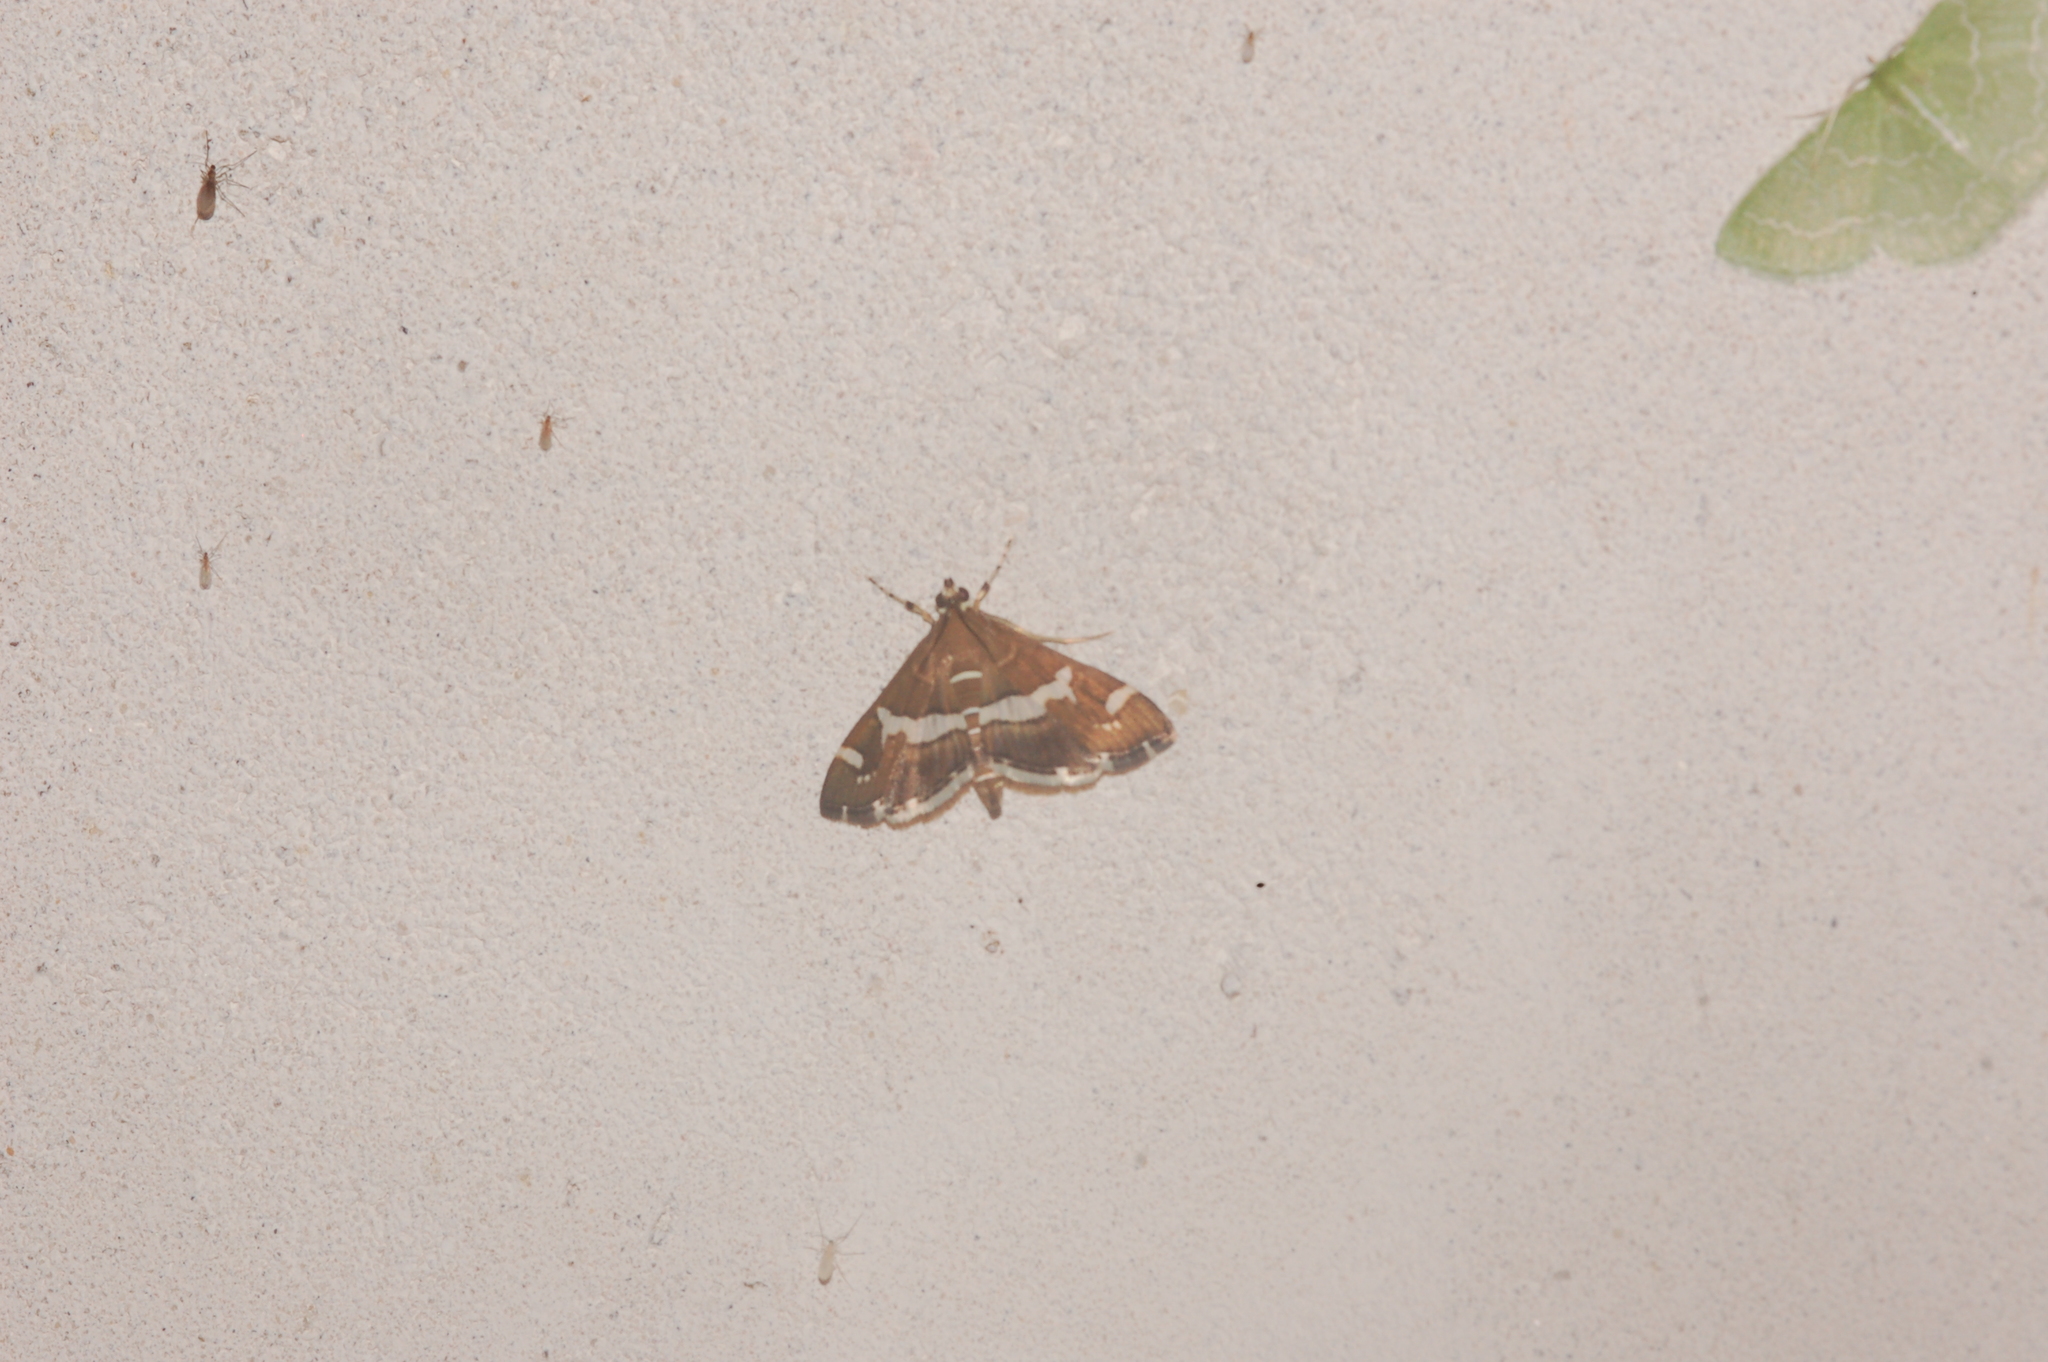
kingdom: Animalia
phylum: Arthropoda
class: Insecta
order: Lepidoptera
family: Crambidae
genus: Spoladea
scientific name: Spoladea recurvalis
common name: Beet webworm moth
